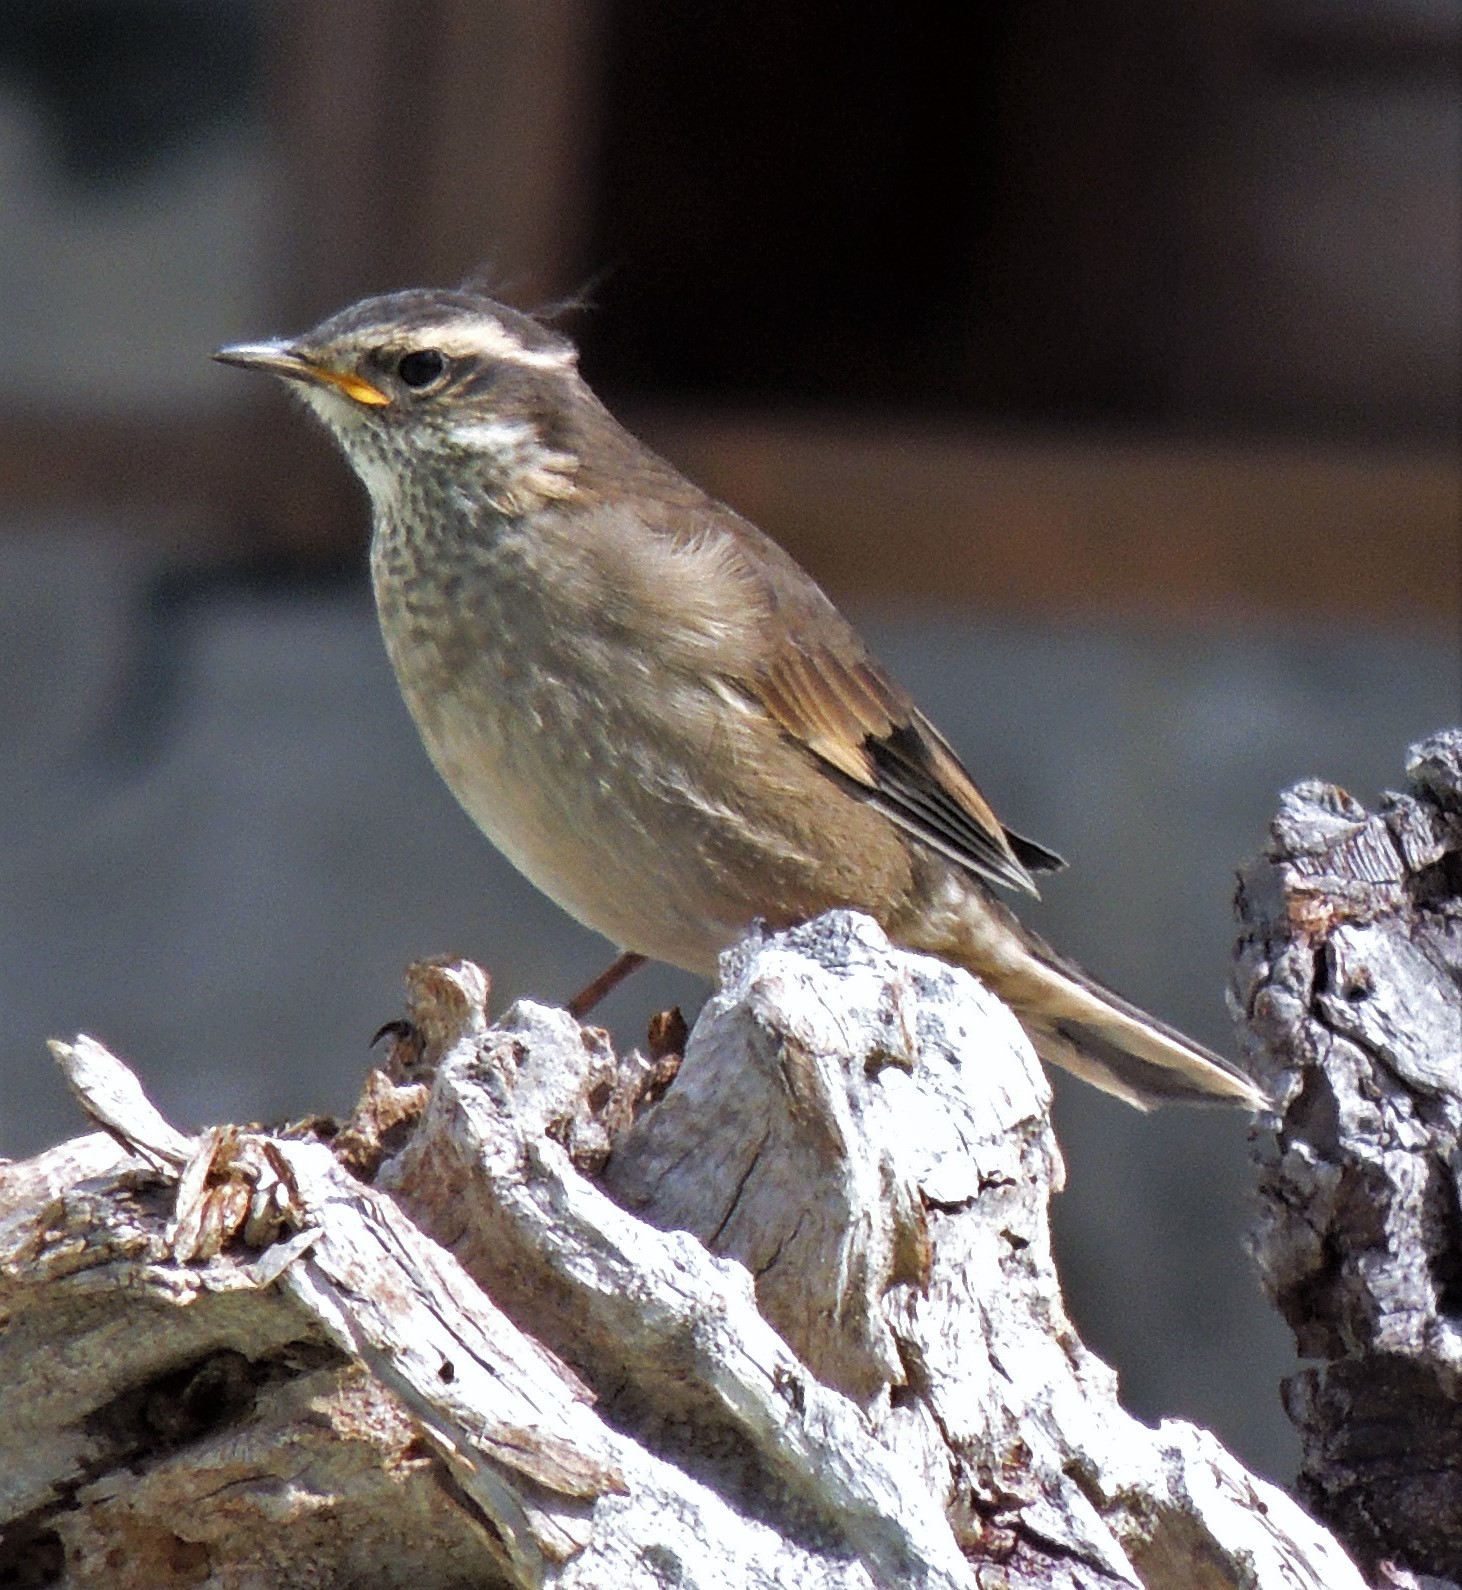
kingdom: Animalia
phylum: Chordata
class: Aves
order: Passeriformes
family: Furnariidae
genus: Cinclodes
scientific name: Cinclodes fuscus
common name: Buff-winged cinclodes
